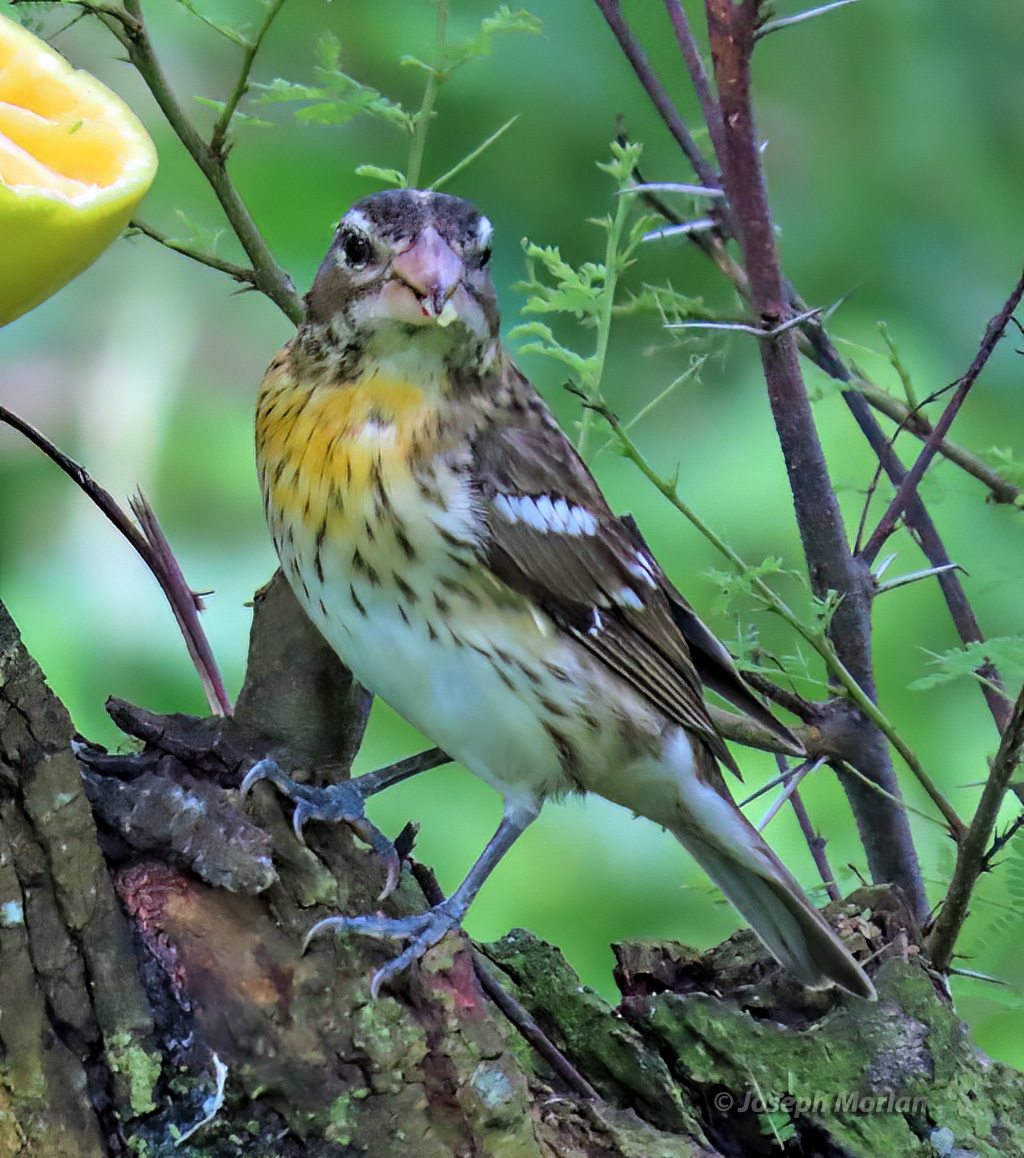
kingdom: Animalia
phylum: Chordata
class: Aves
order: Passeriformes
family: Cardinalidae
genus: Pheucticus
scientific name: Pheucticus ludovicianus
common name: Rose-breasted grosbeak
